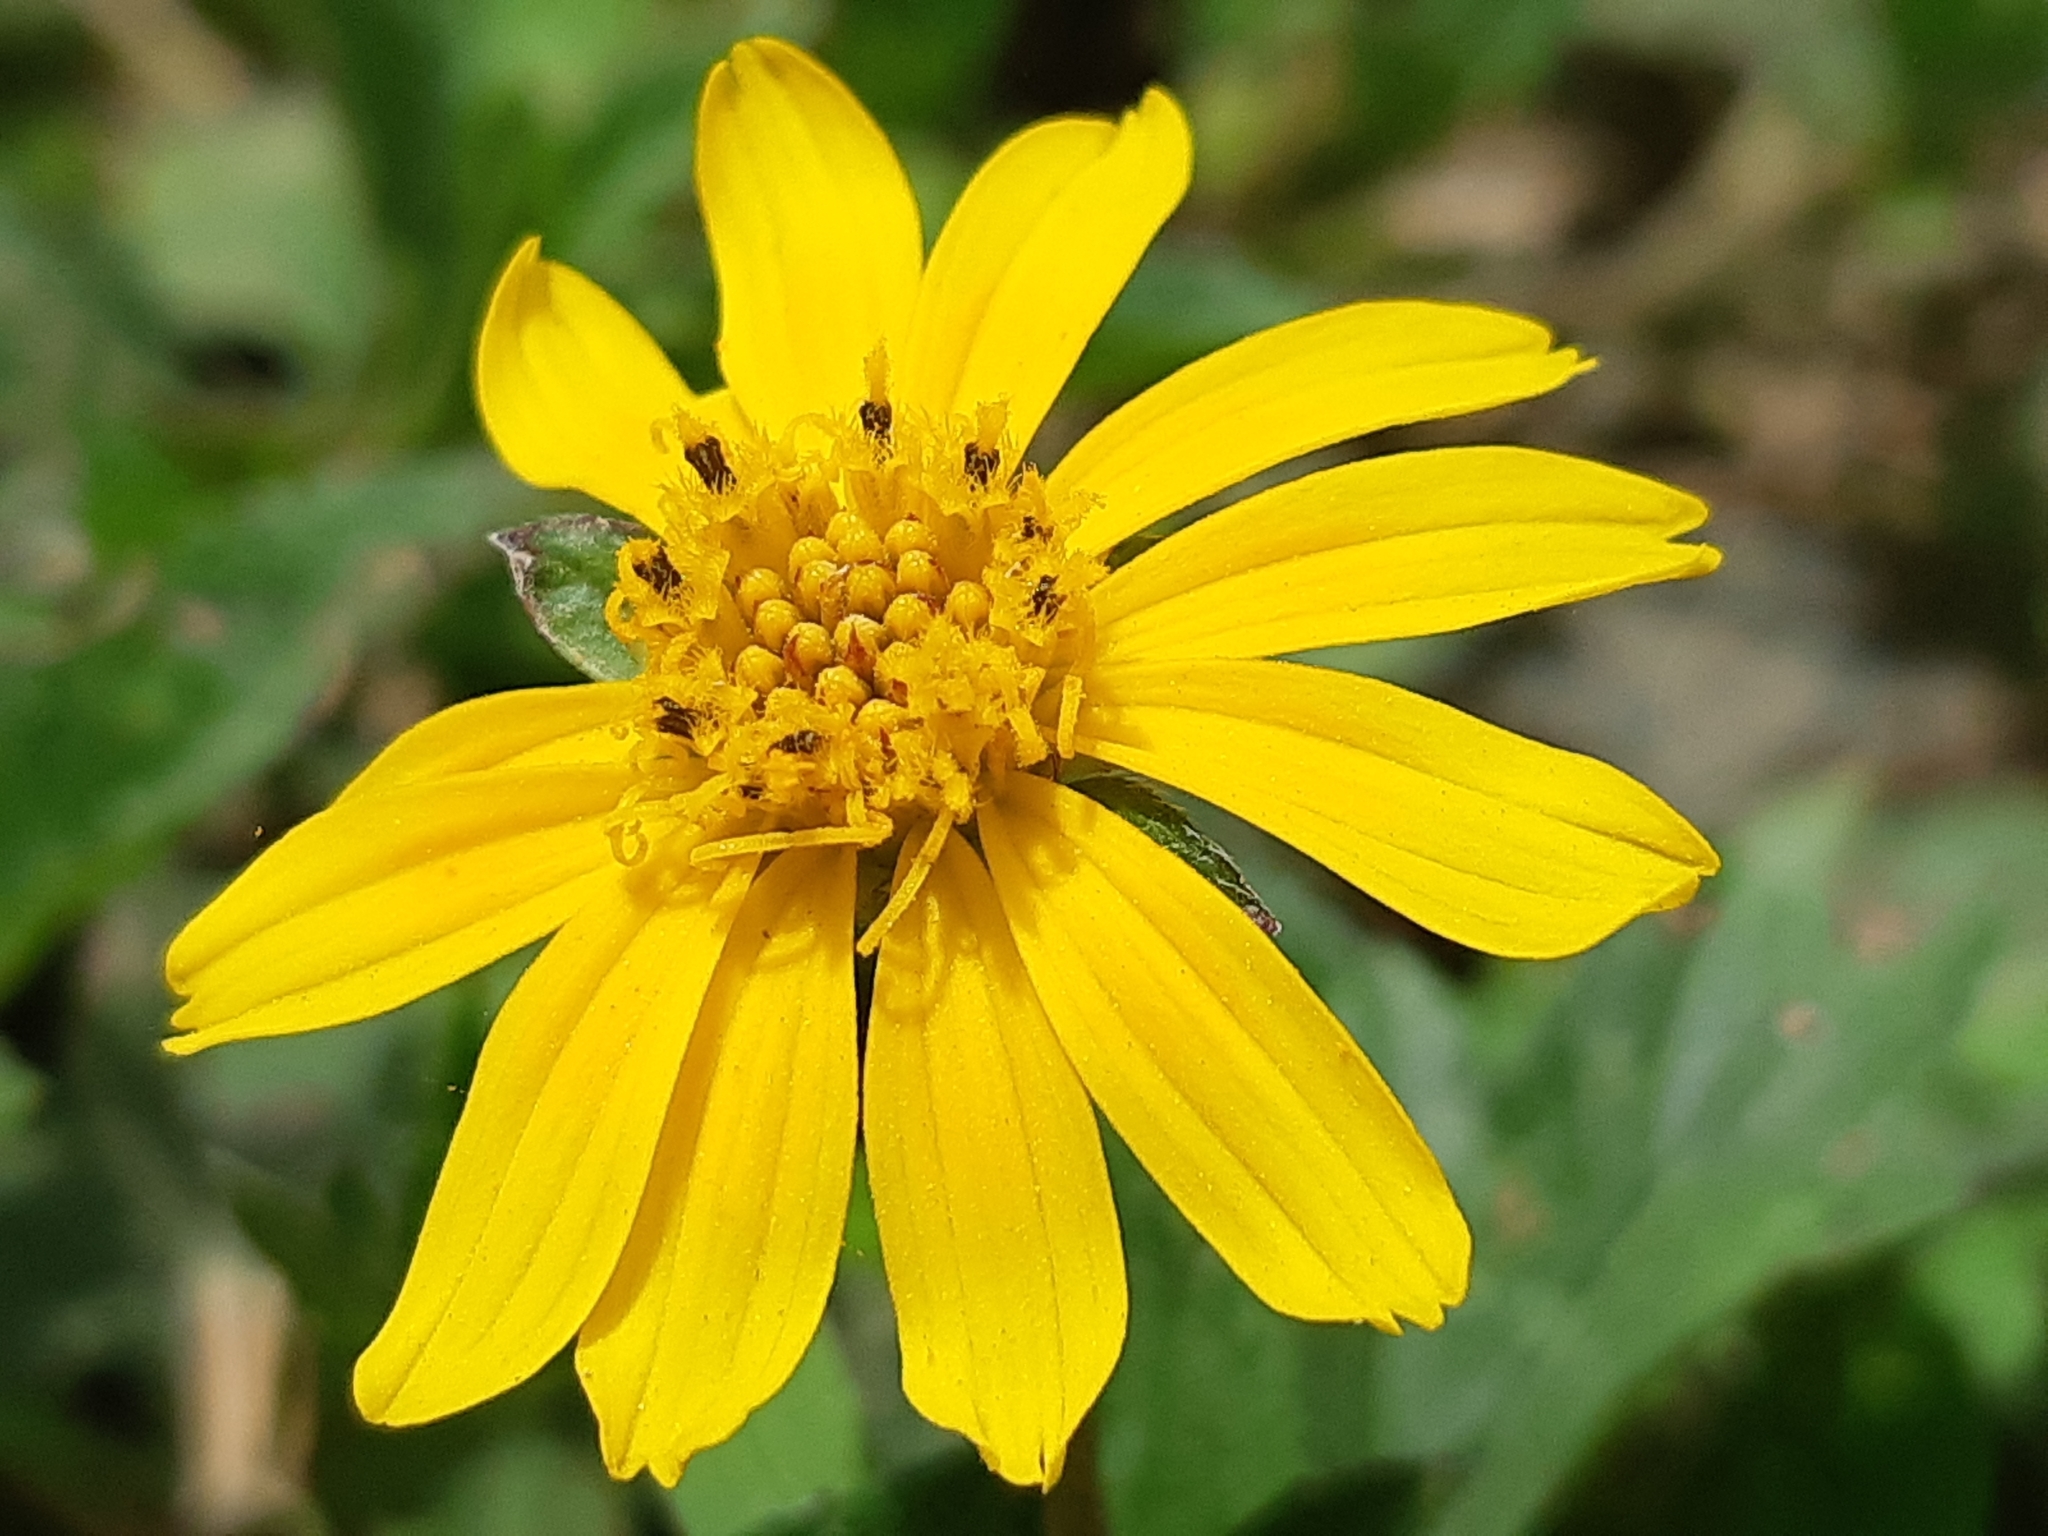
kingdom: Plantae
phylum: Tracheophyta
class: Magnoliopsida
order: Asterales
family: Asteraceae
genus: Sphagneticola
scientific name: Sphagneticola trilobata
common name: Bay biscayne creeping-oxeye
